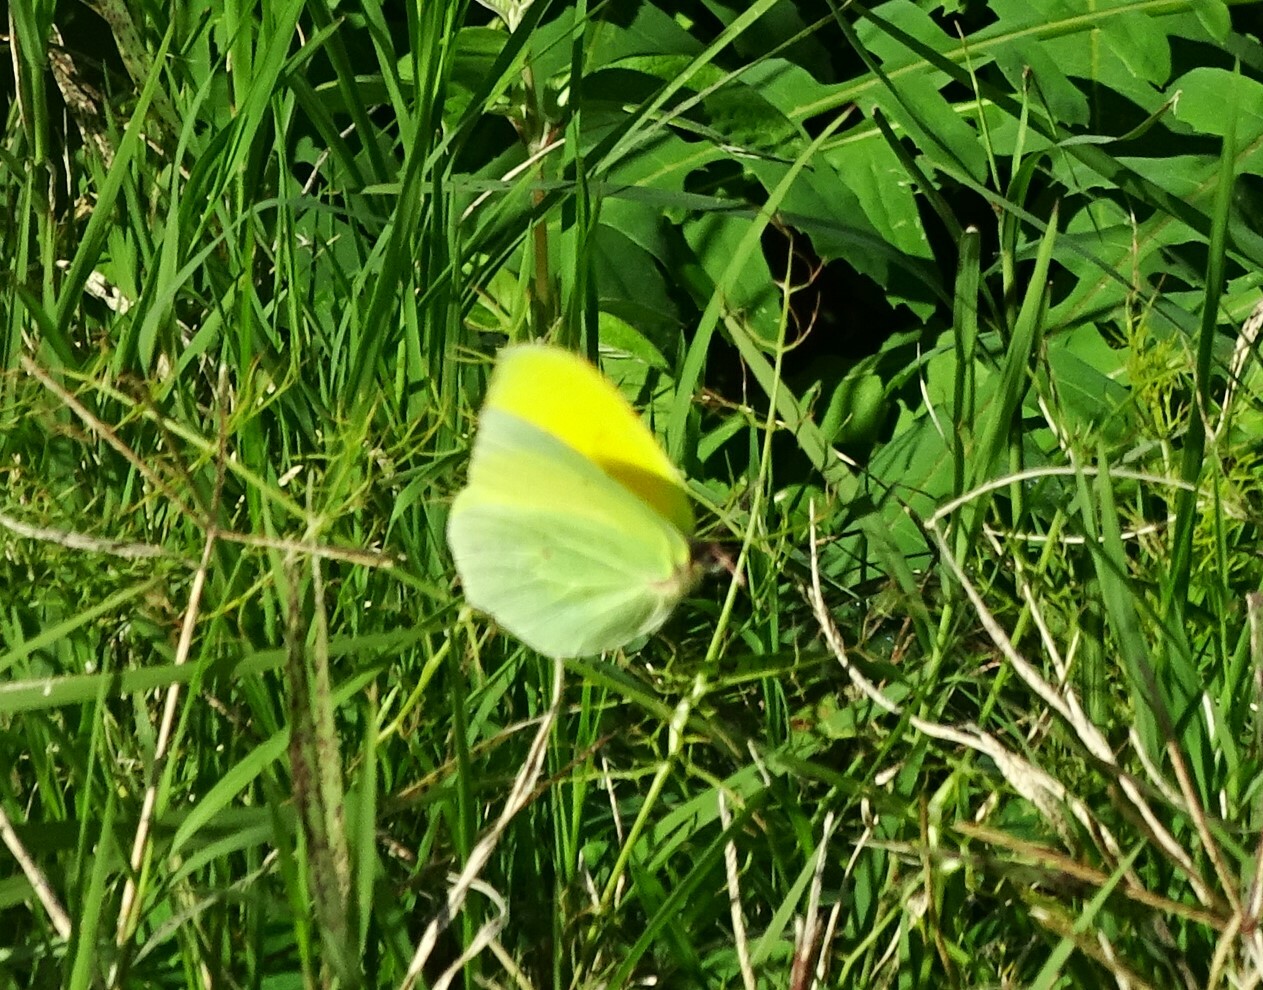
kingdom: Animalia
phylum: Arthropoda
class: Insecta
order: Lepidoptera
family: Pieridae
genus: Gonepteryx
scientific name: Gonepteryx cleobule
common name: Canary brimstone
